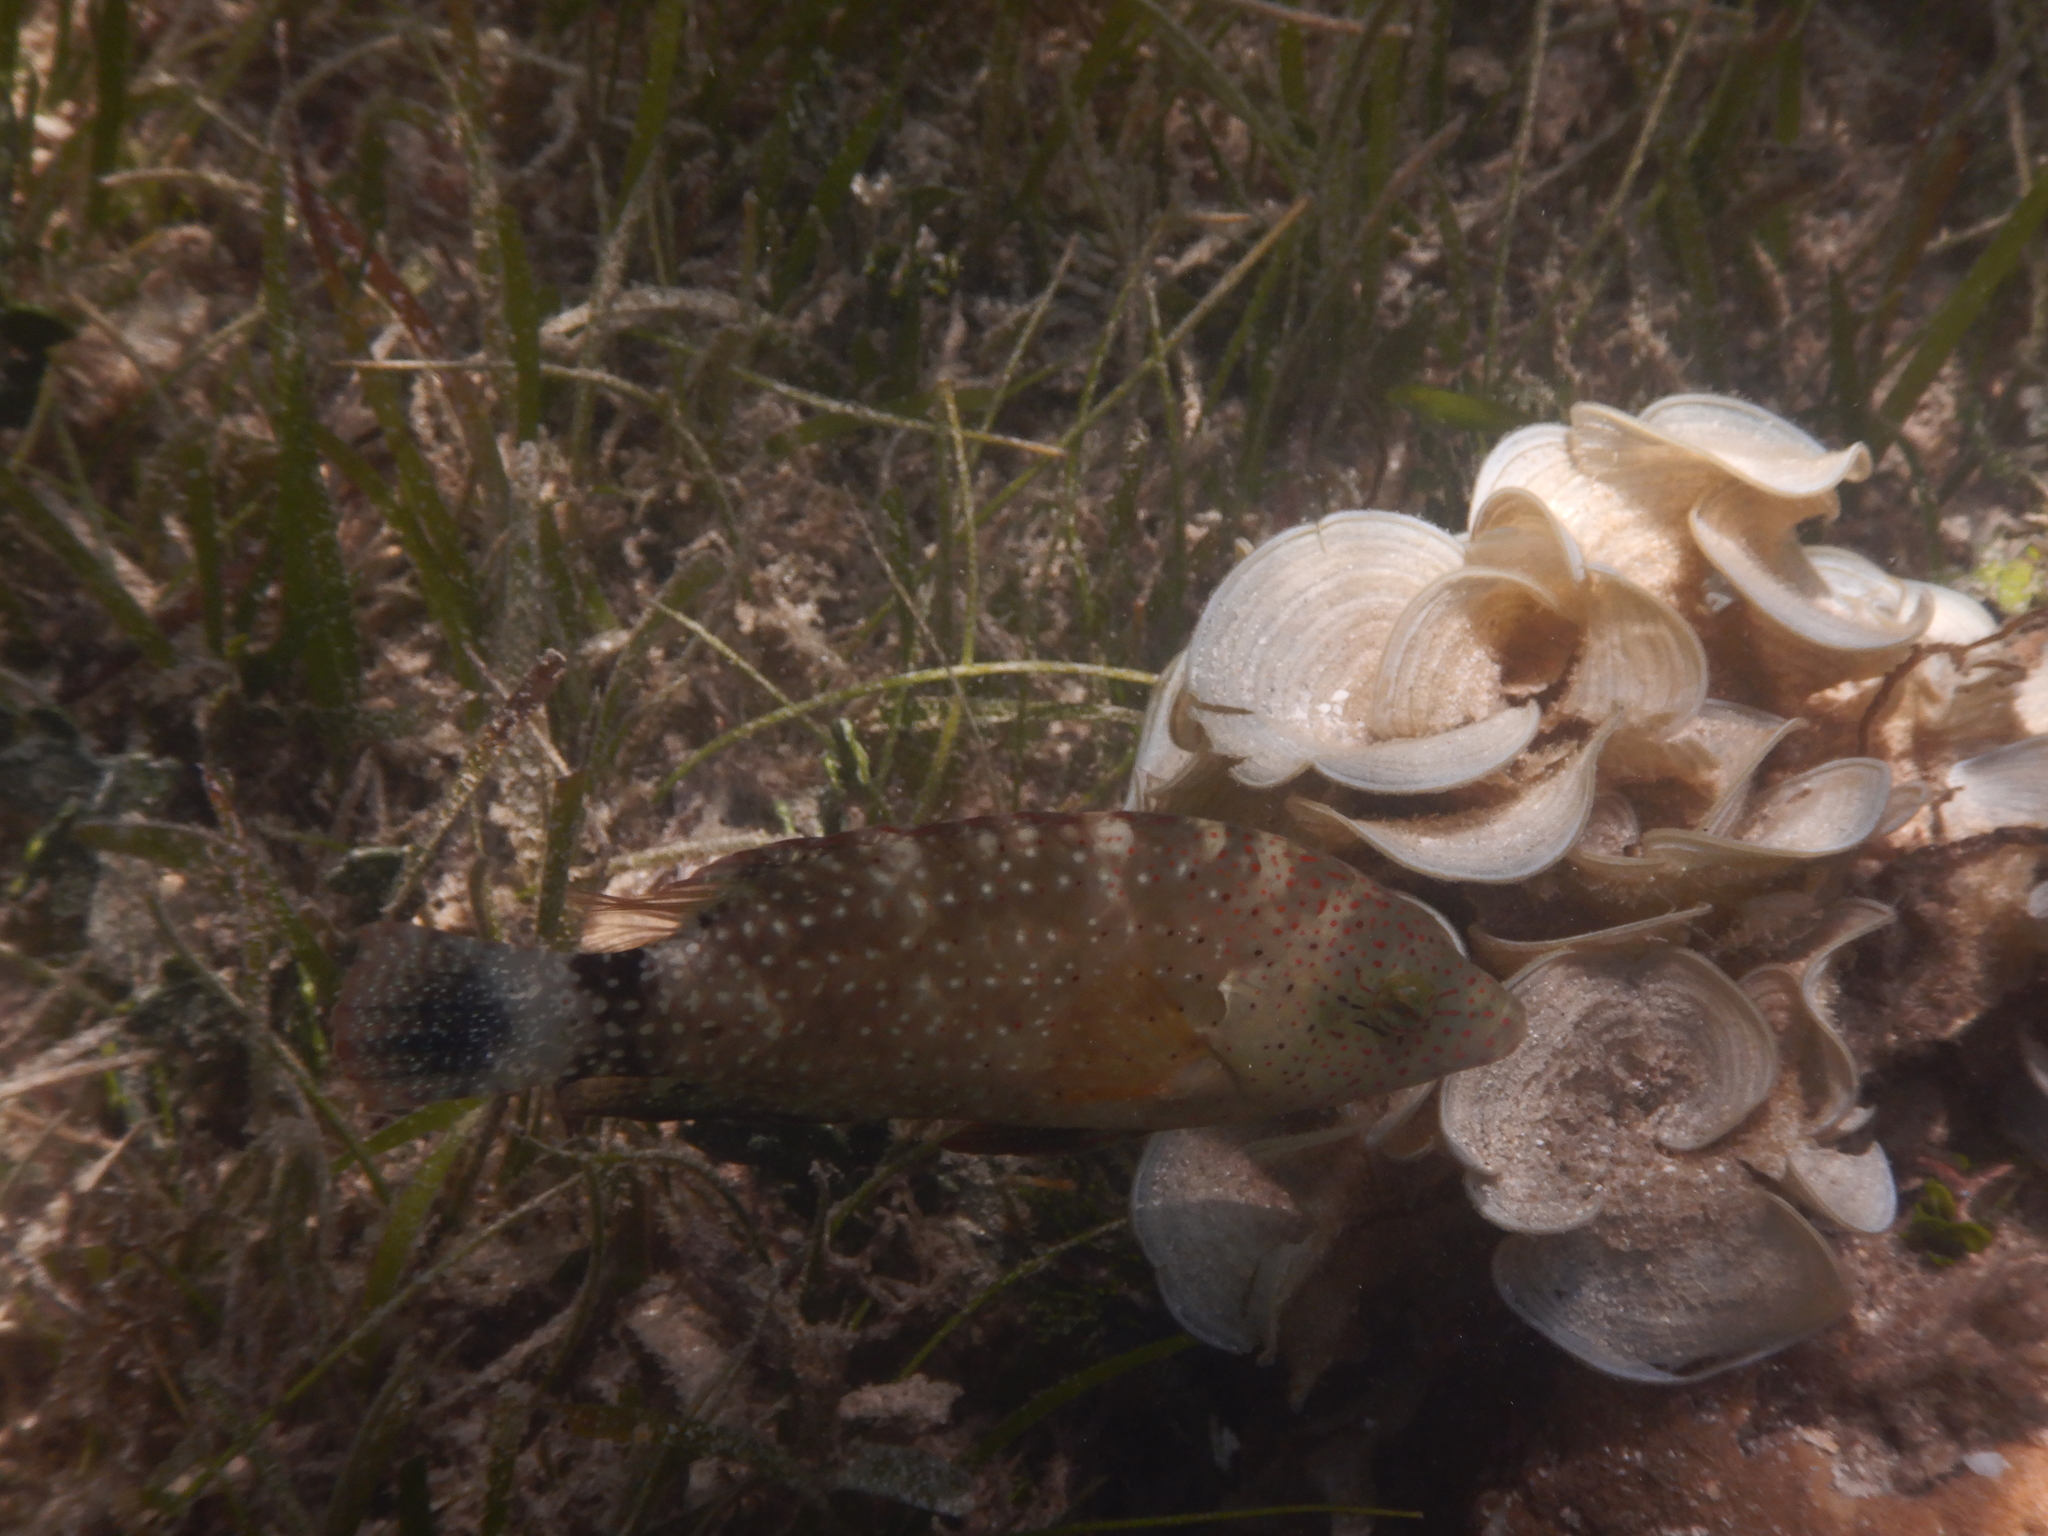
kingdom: Animalia
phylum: Chordata
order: Perciformes
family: Labridae
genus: Cheilinus
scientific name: Cheilinus chlorourus
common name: Floral wrasse
